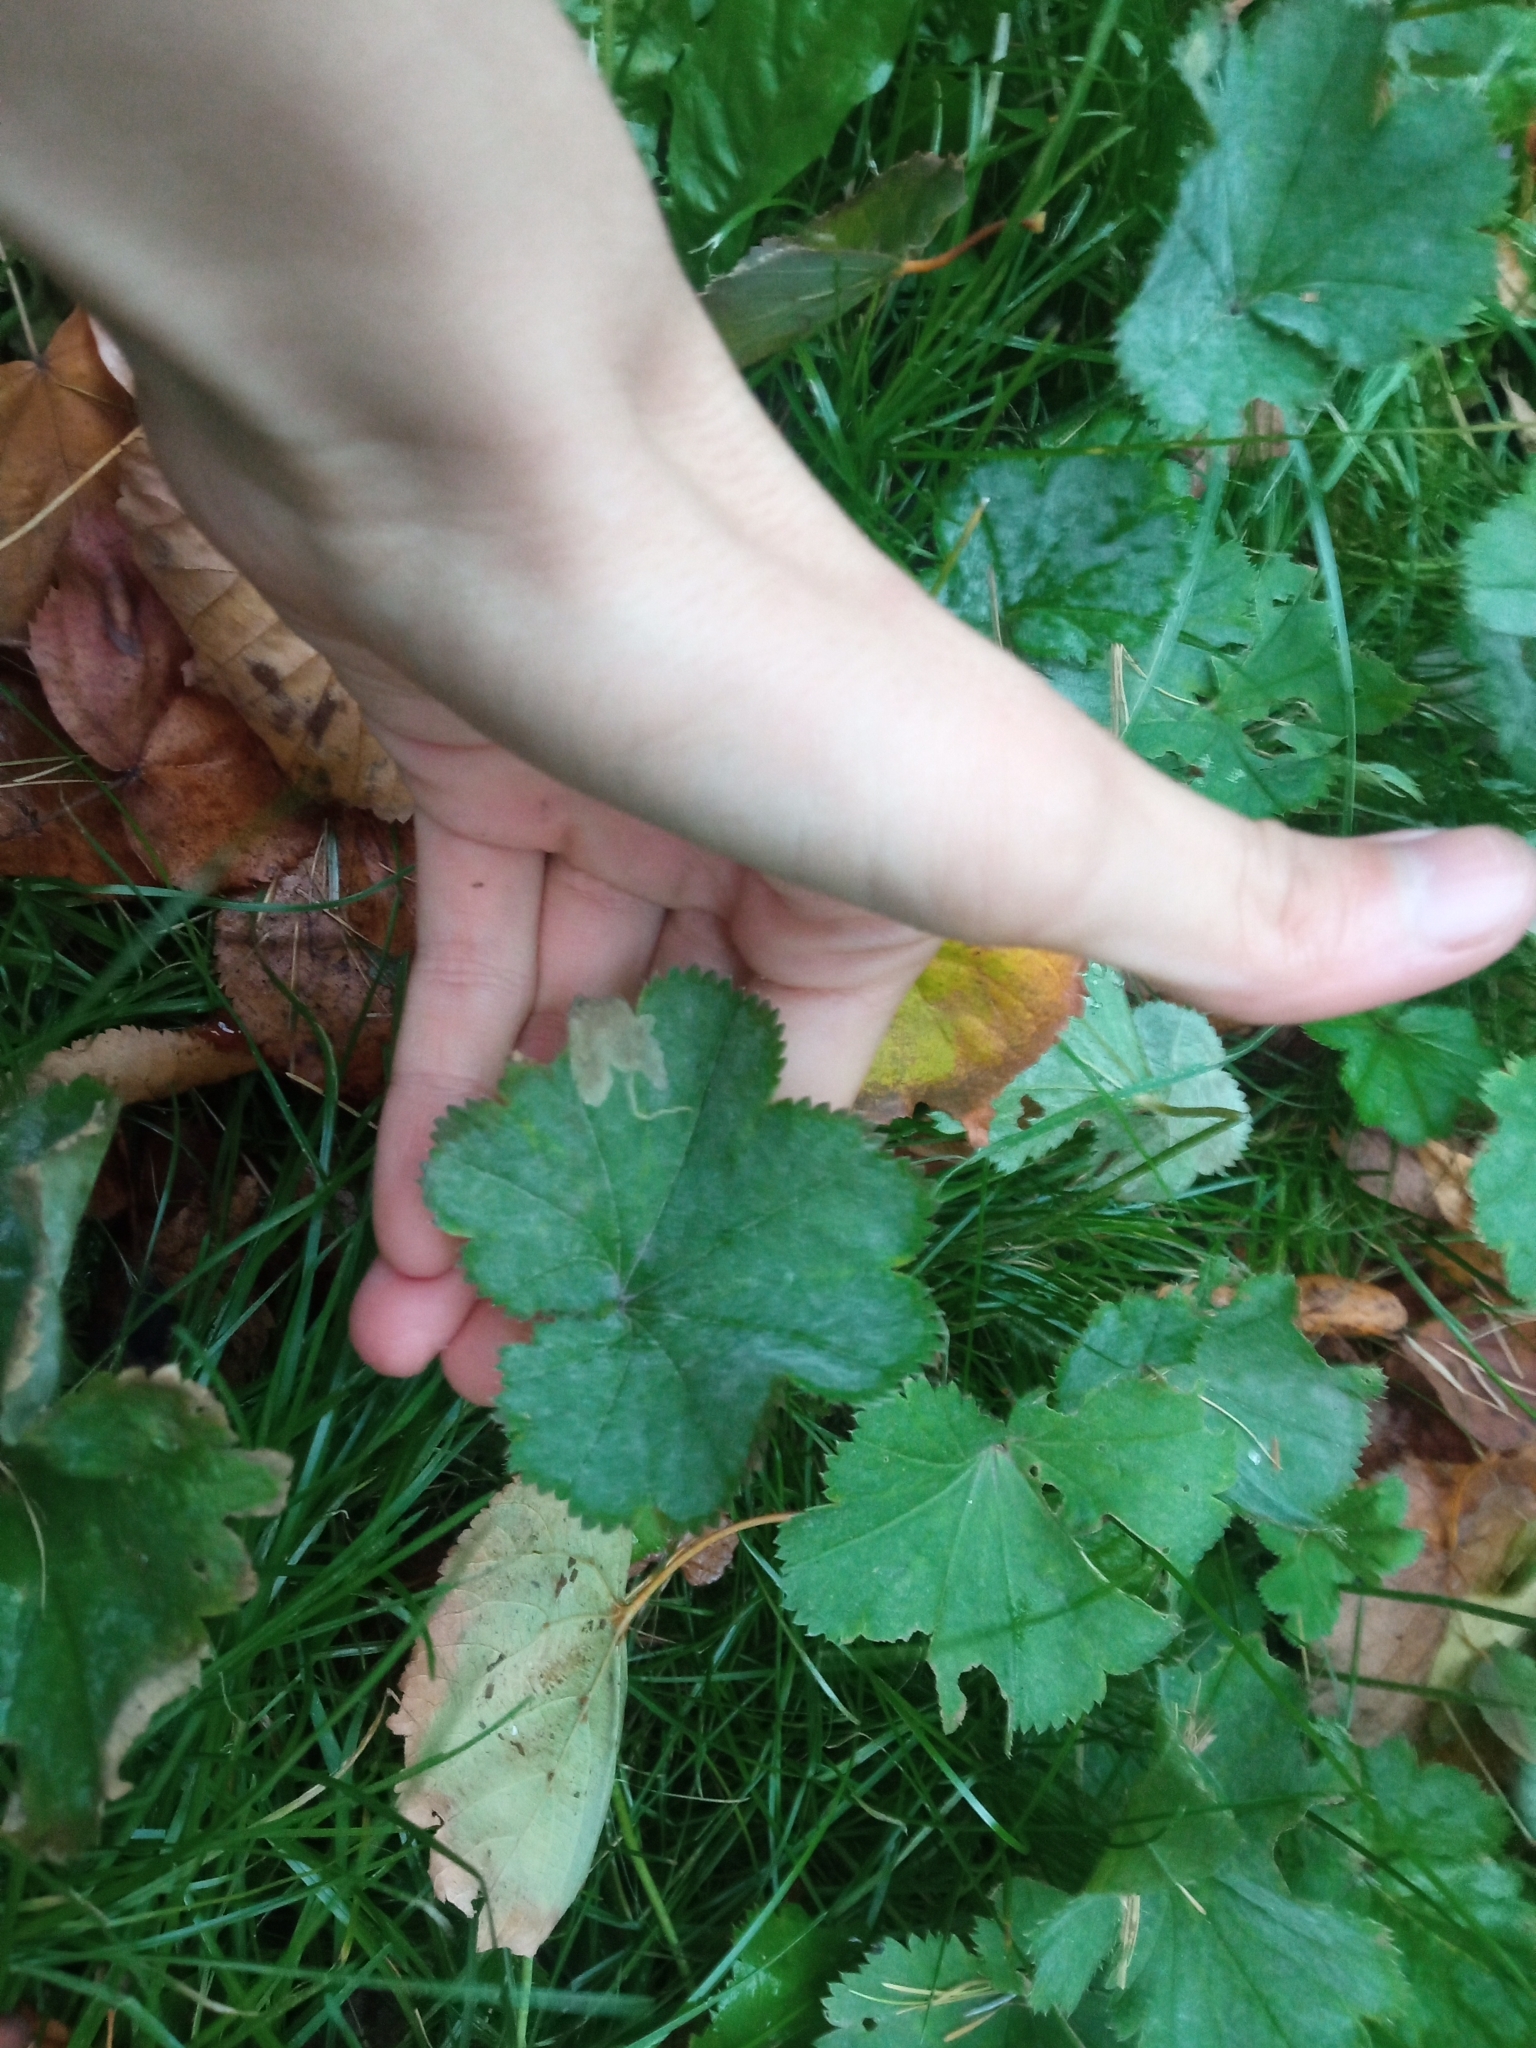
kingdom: Plantae
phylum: Tracheophyta
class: Magnoliopsida
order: Rosales
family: Rosaceae
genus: Alchemilla
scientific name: Alchemilla
